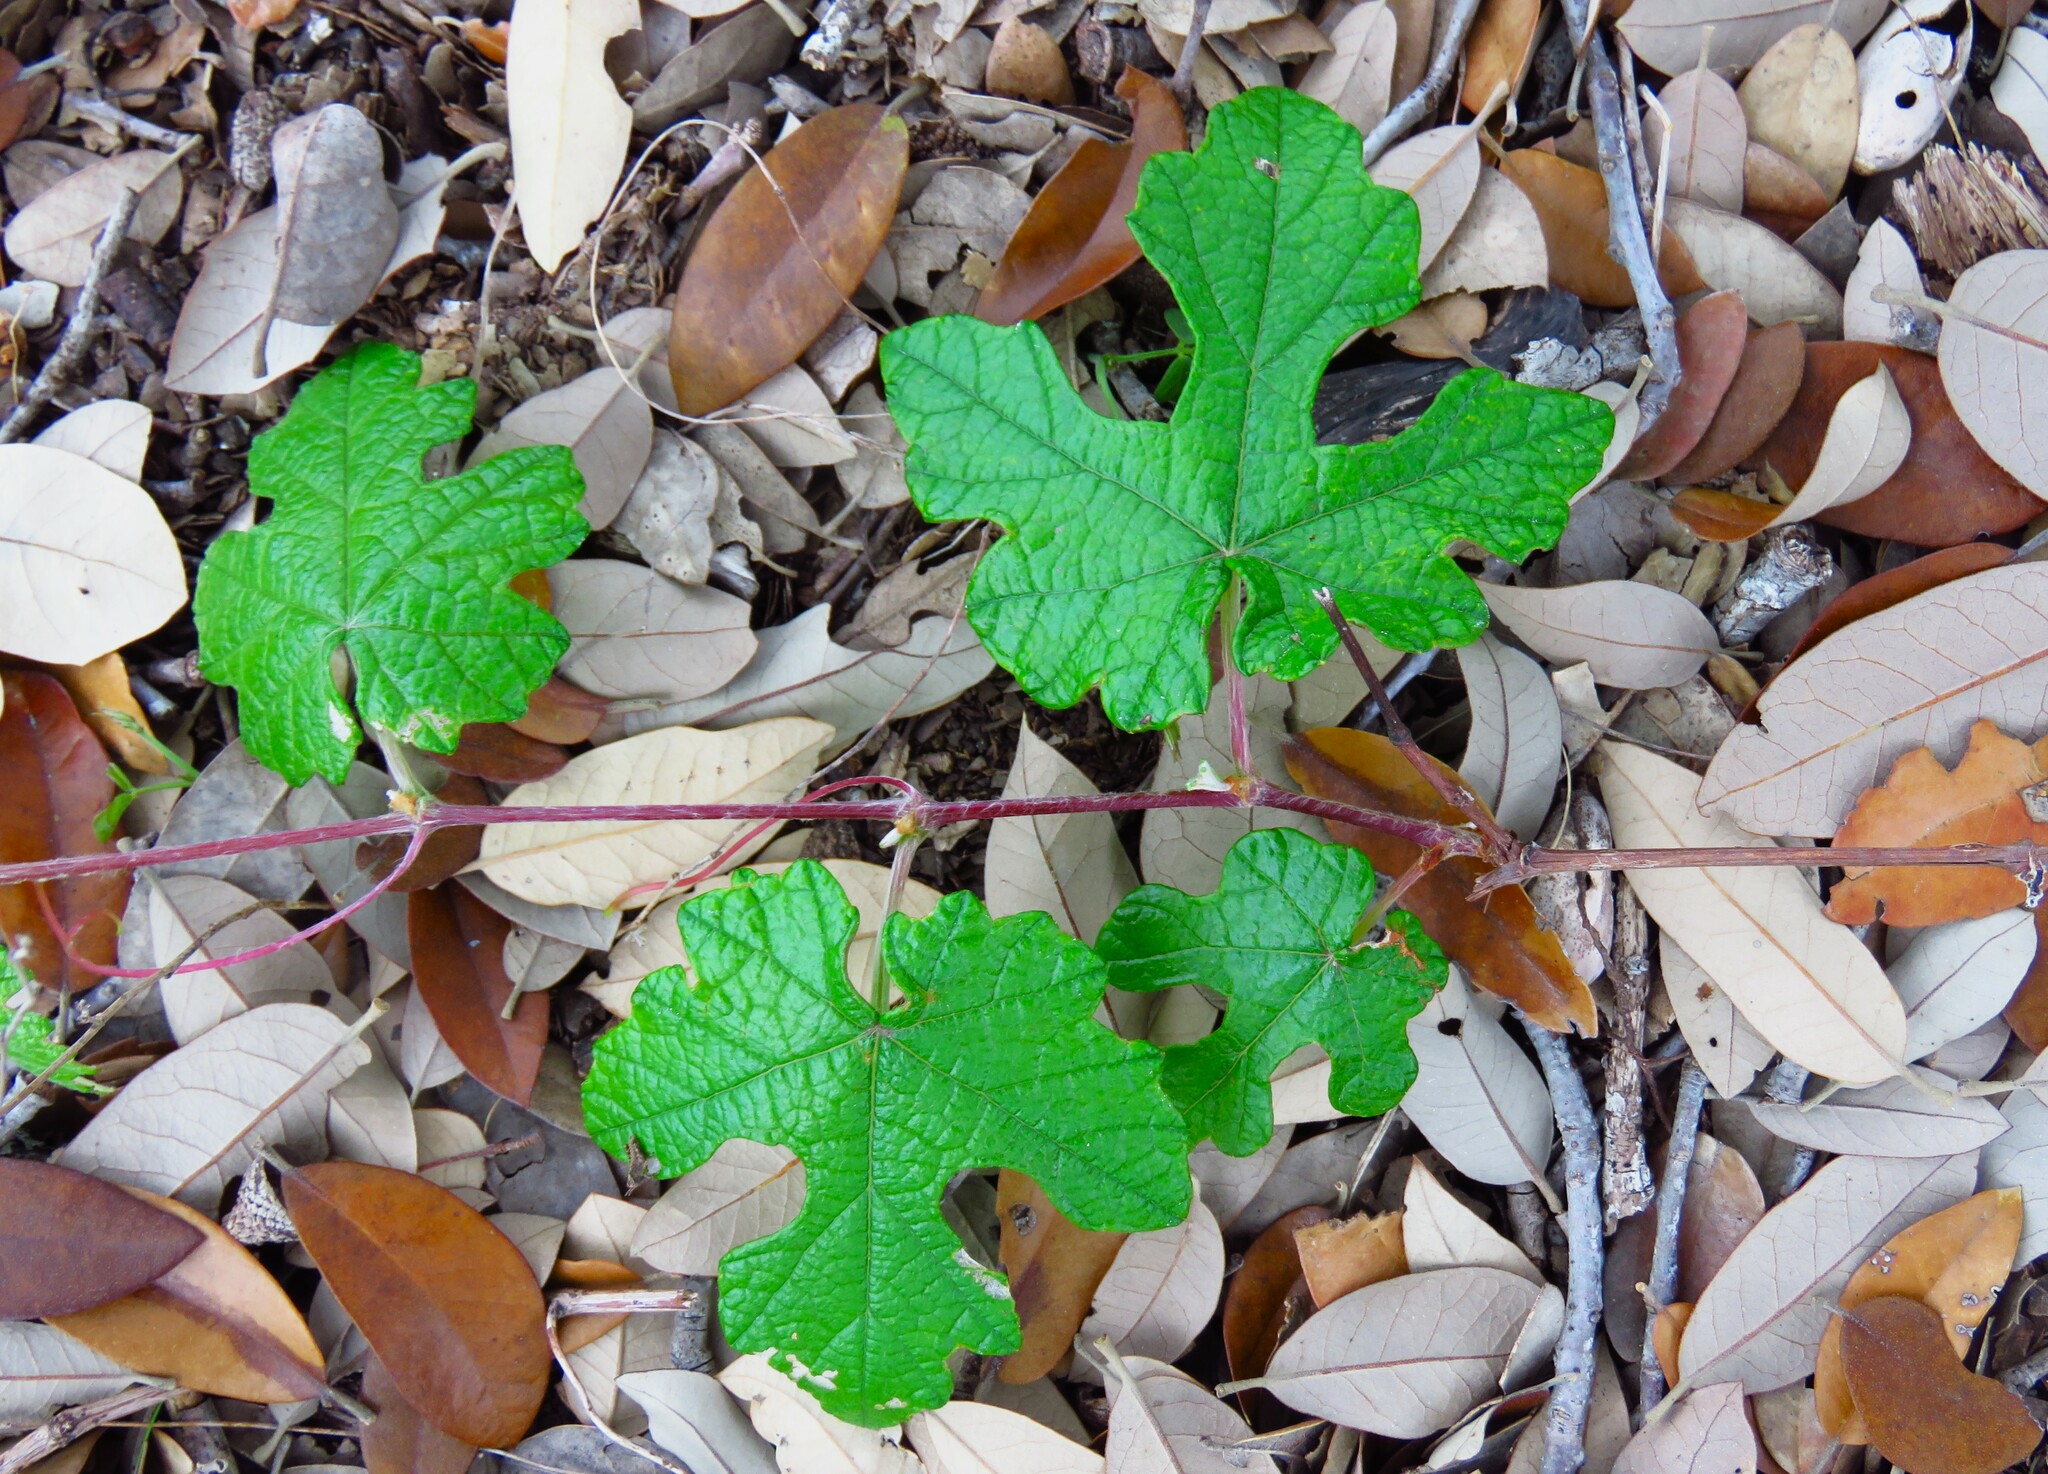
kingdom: Plantae
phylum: Tracheophyta
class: Magnoliopsida
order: Vitales
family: Vitaceae
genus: Vitis
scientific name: Vitis mustangensis
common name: Mustang grape
